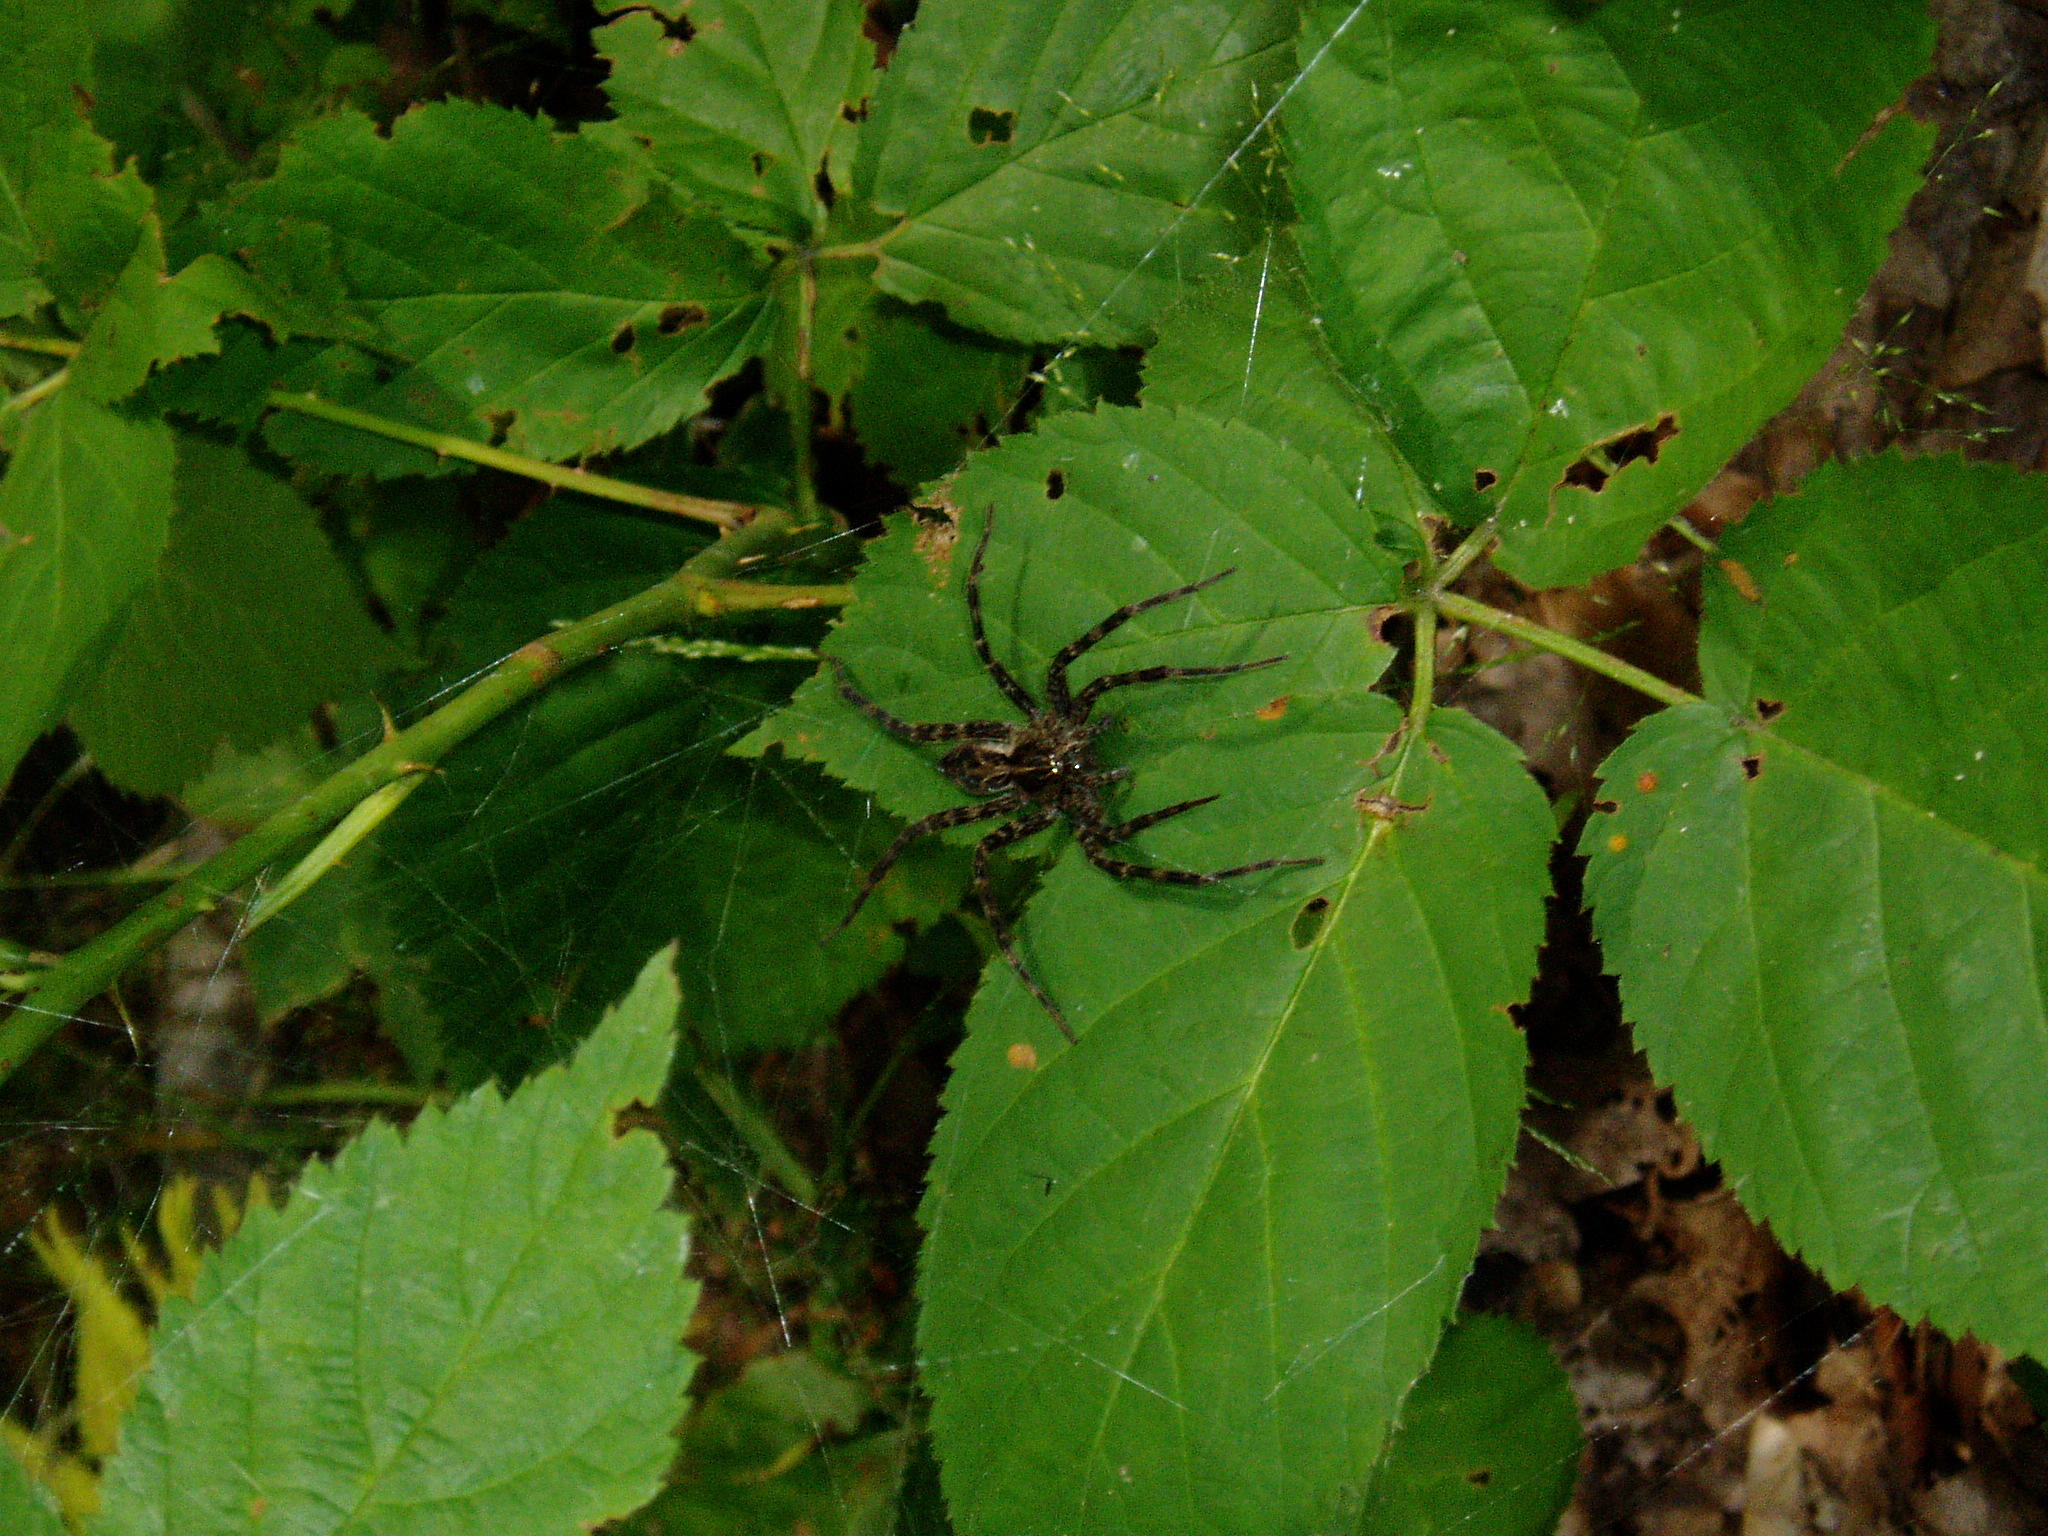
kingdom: Animalia
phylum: Arthropoda
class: Arachnida
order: Araneae
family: Pisauridae
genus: Dolomedes
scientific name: Dolomedes scriptus
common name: Striped fishing spider
